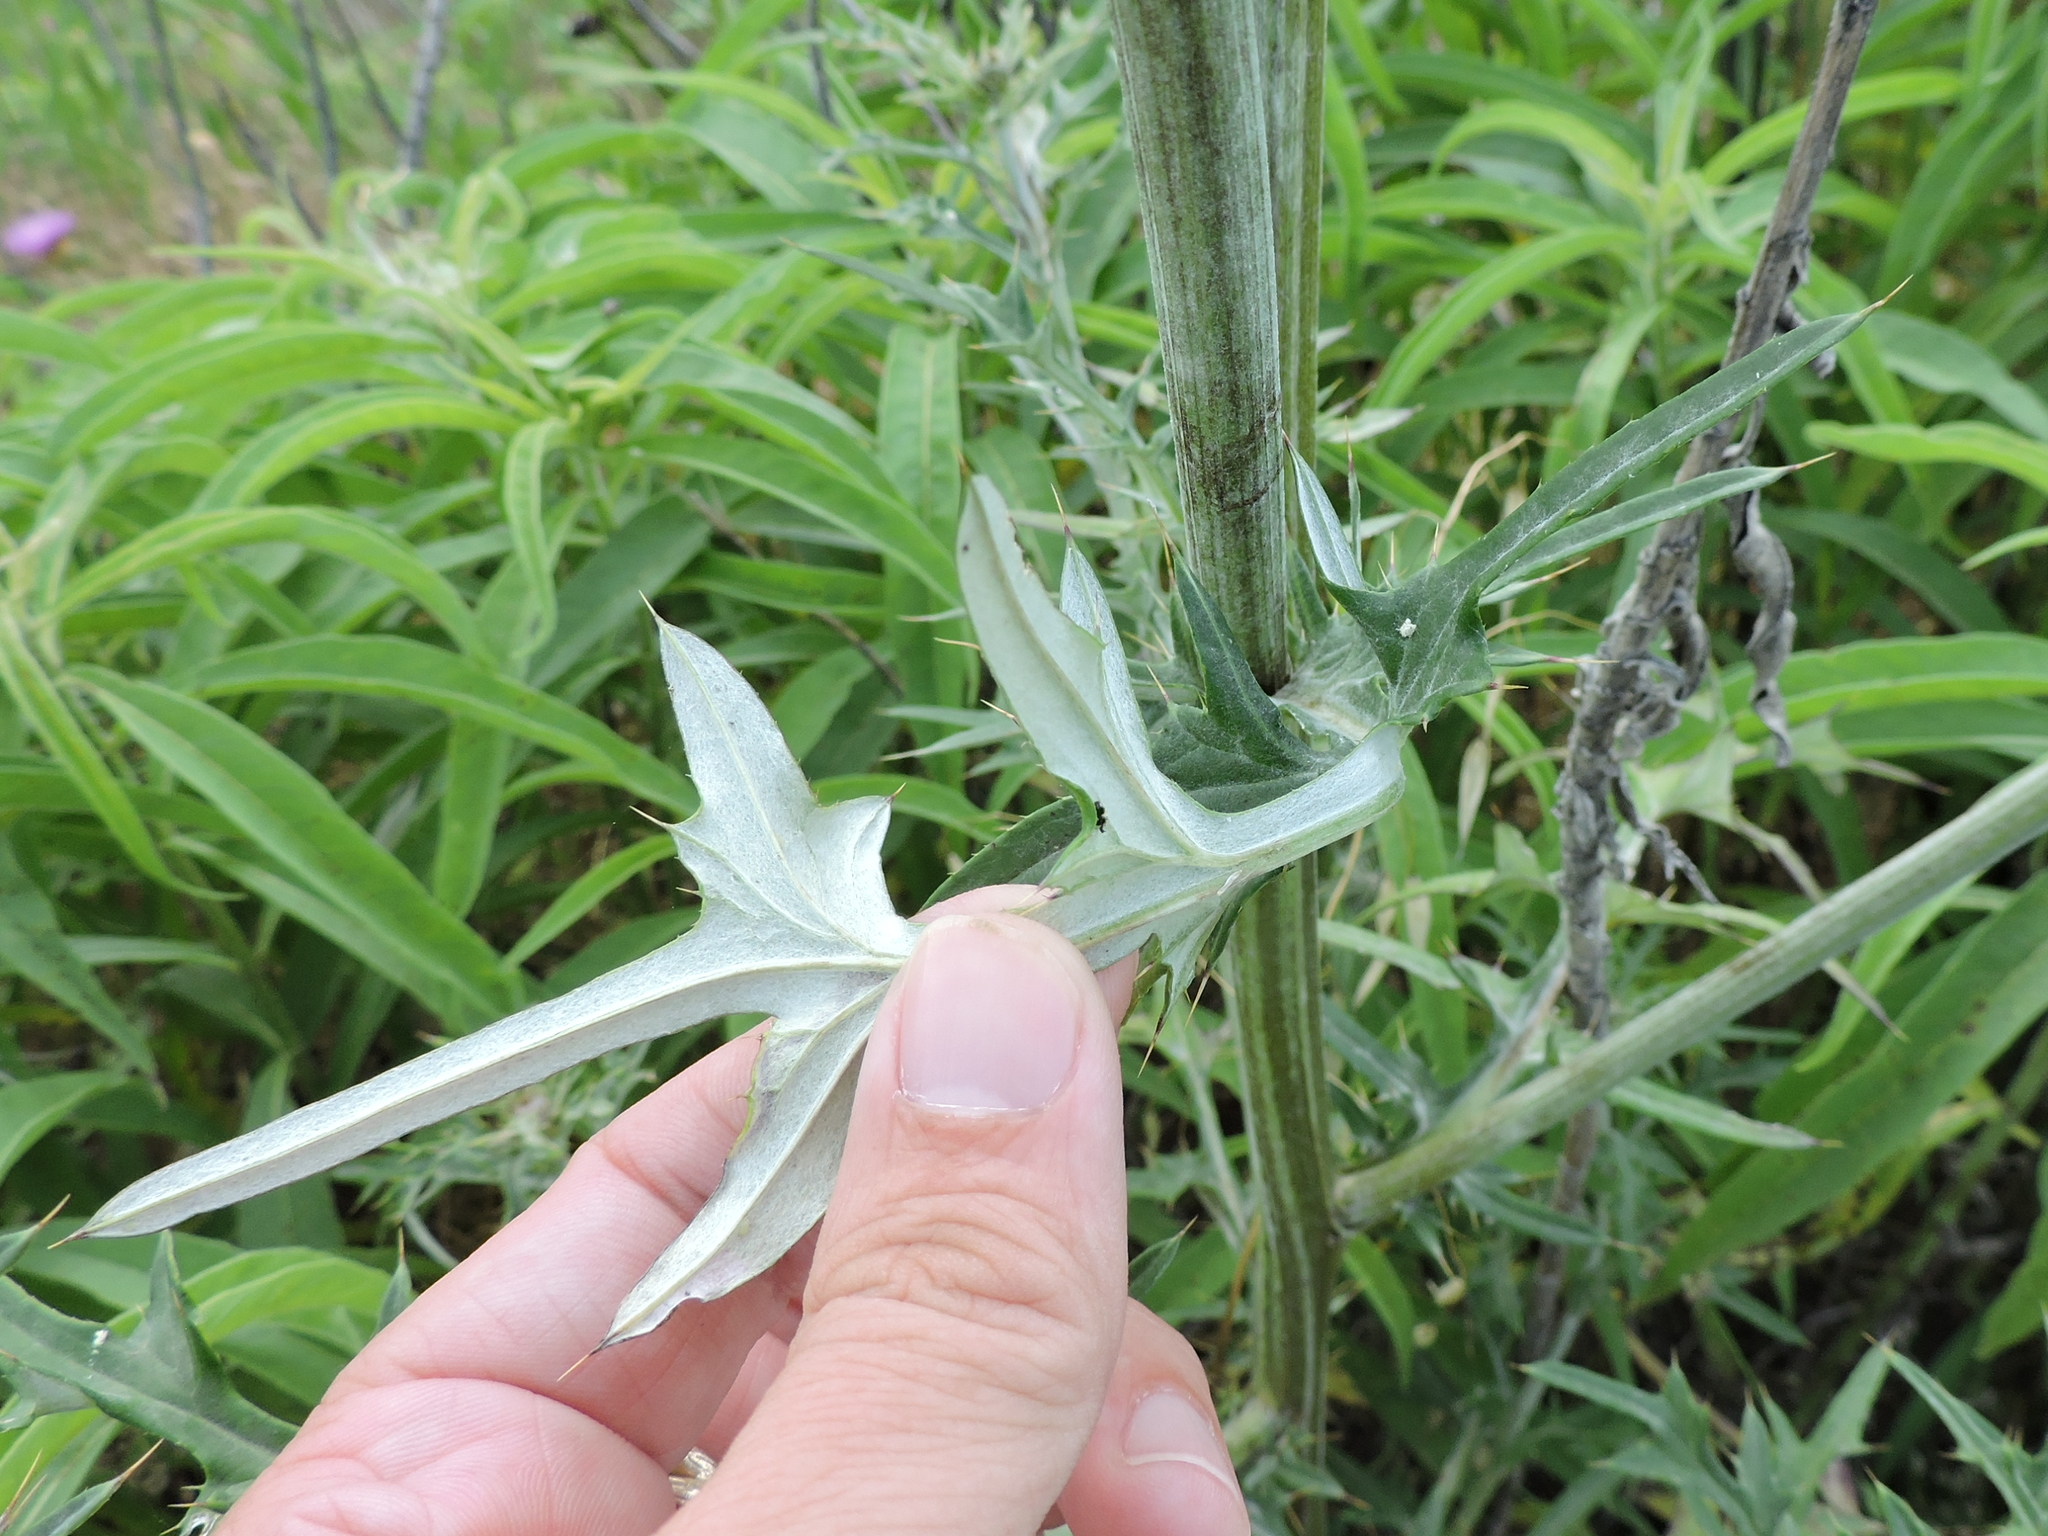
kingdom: Plantae
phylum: Tracheophyta
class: Magnoliopsida
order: Asterales
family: Asteraceae
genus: Cirsium
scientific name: Cirsium engelmannii
